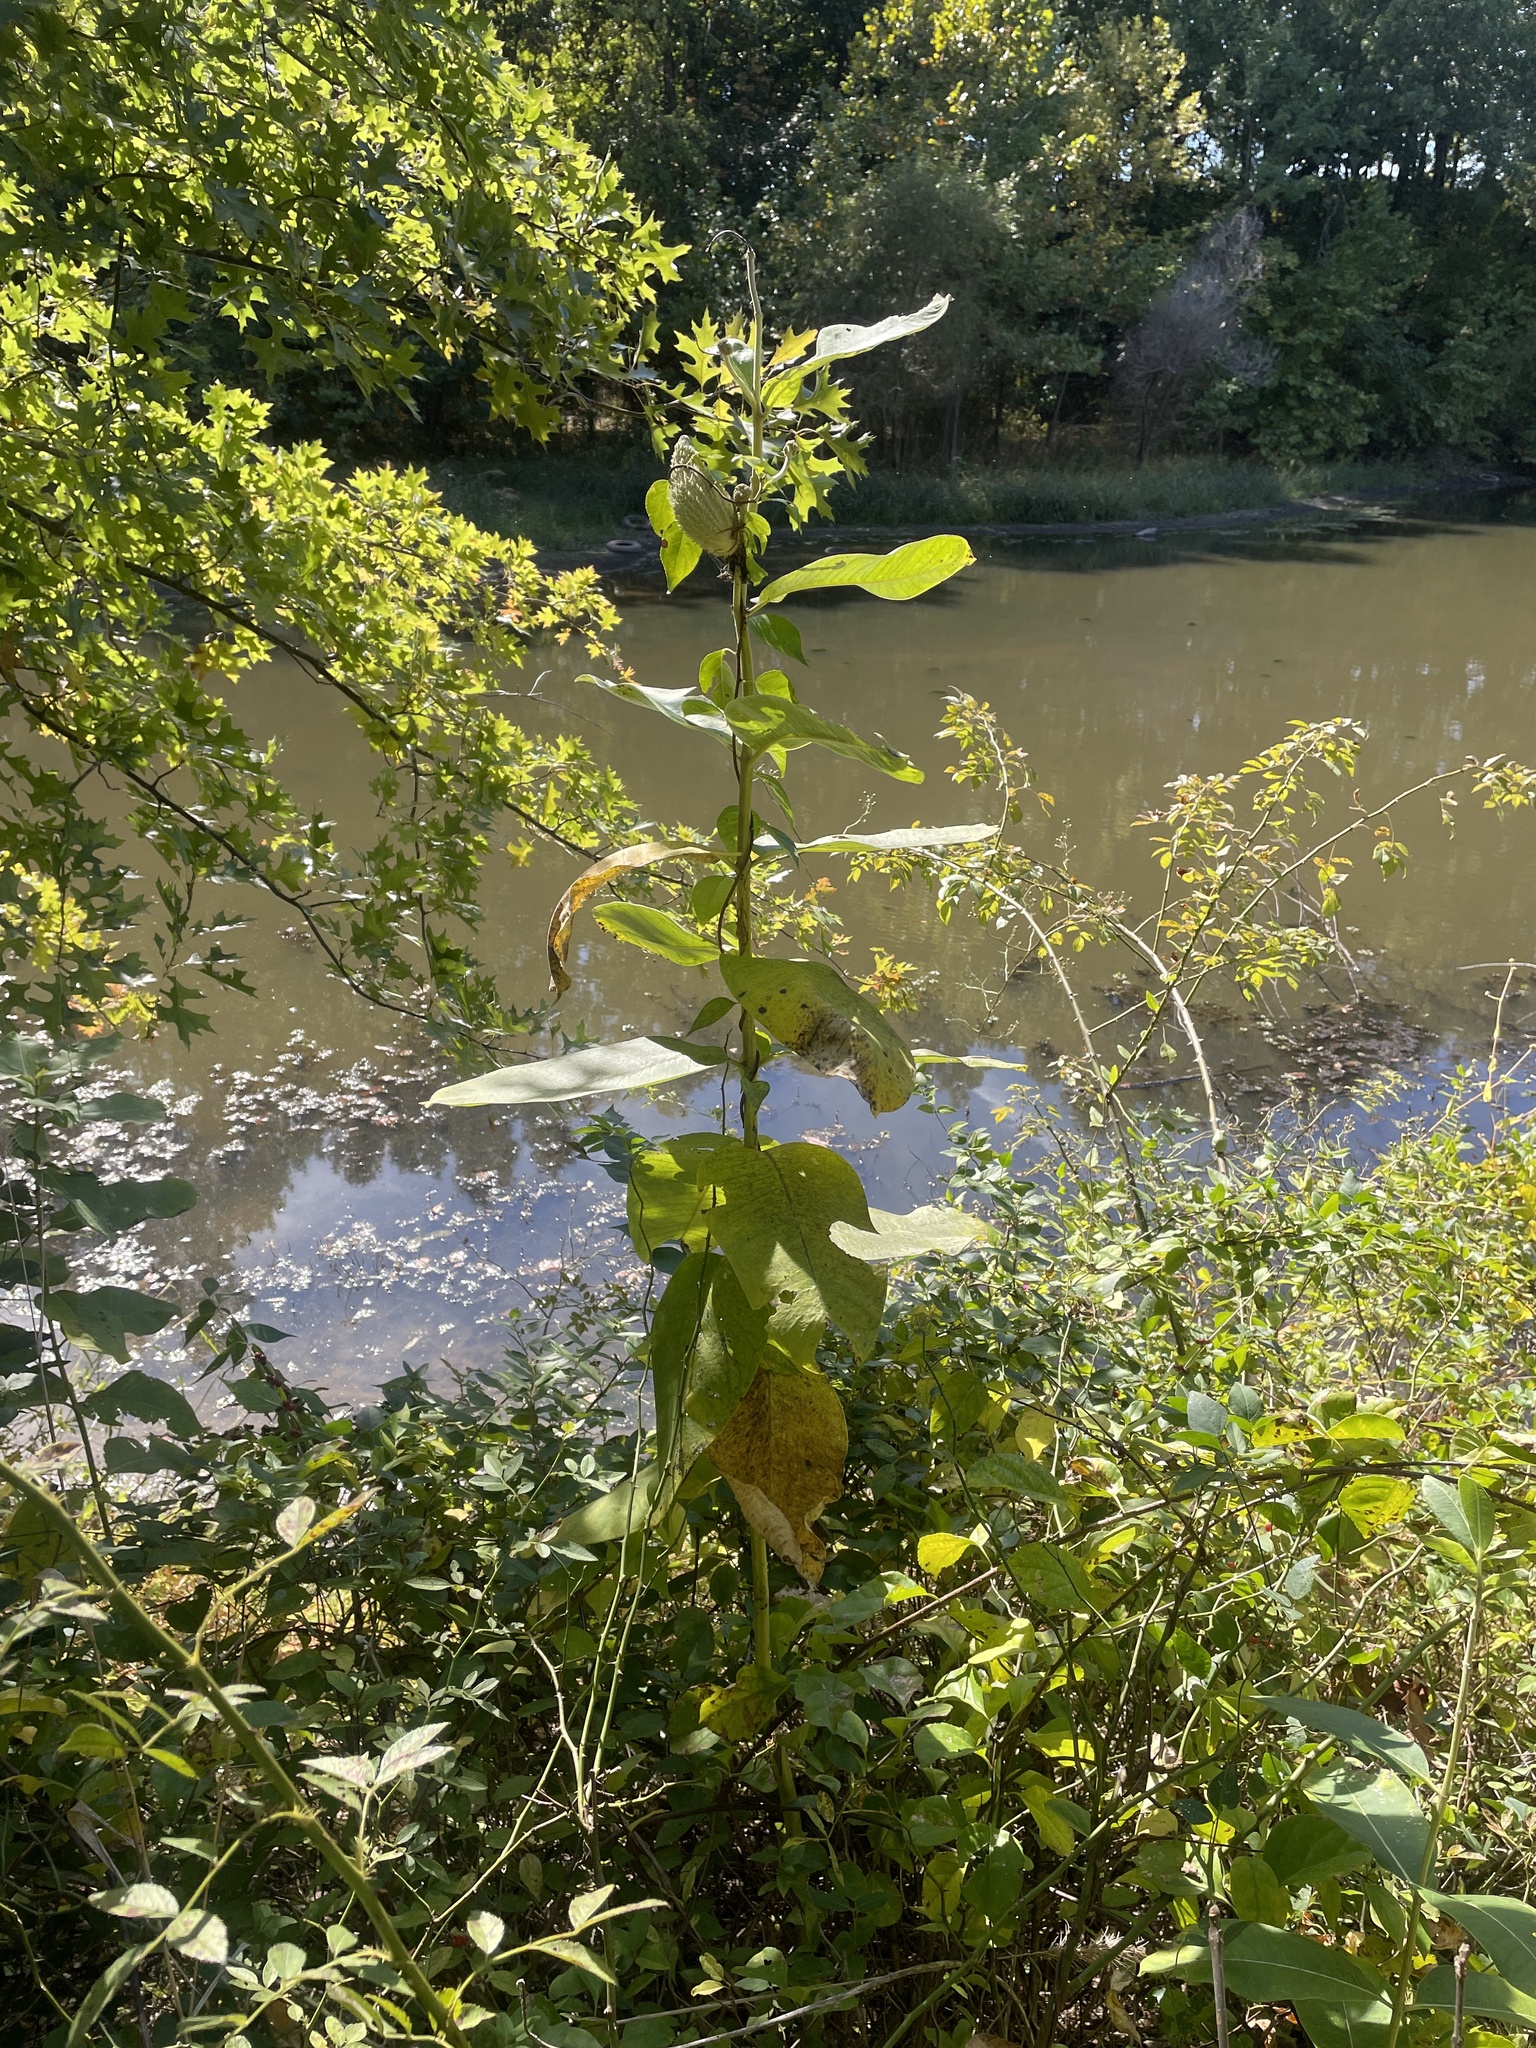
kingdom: Plantae
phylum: Tracheophyta
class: Magnoliopsida
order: Gentianales
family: Apocynaceae
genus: Asclepias
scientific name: Asclepias syriaca
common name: Common milkweed
